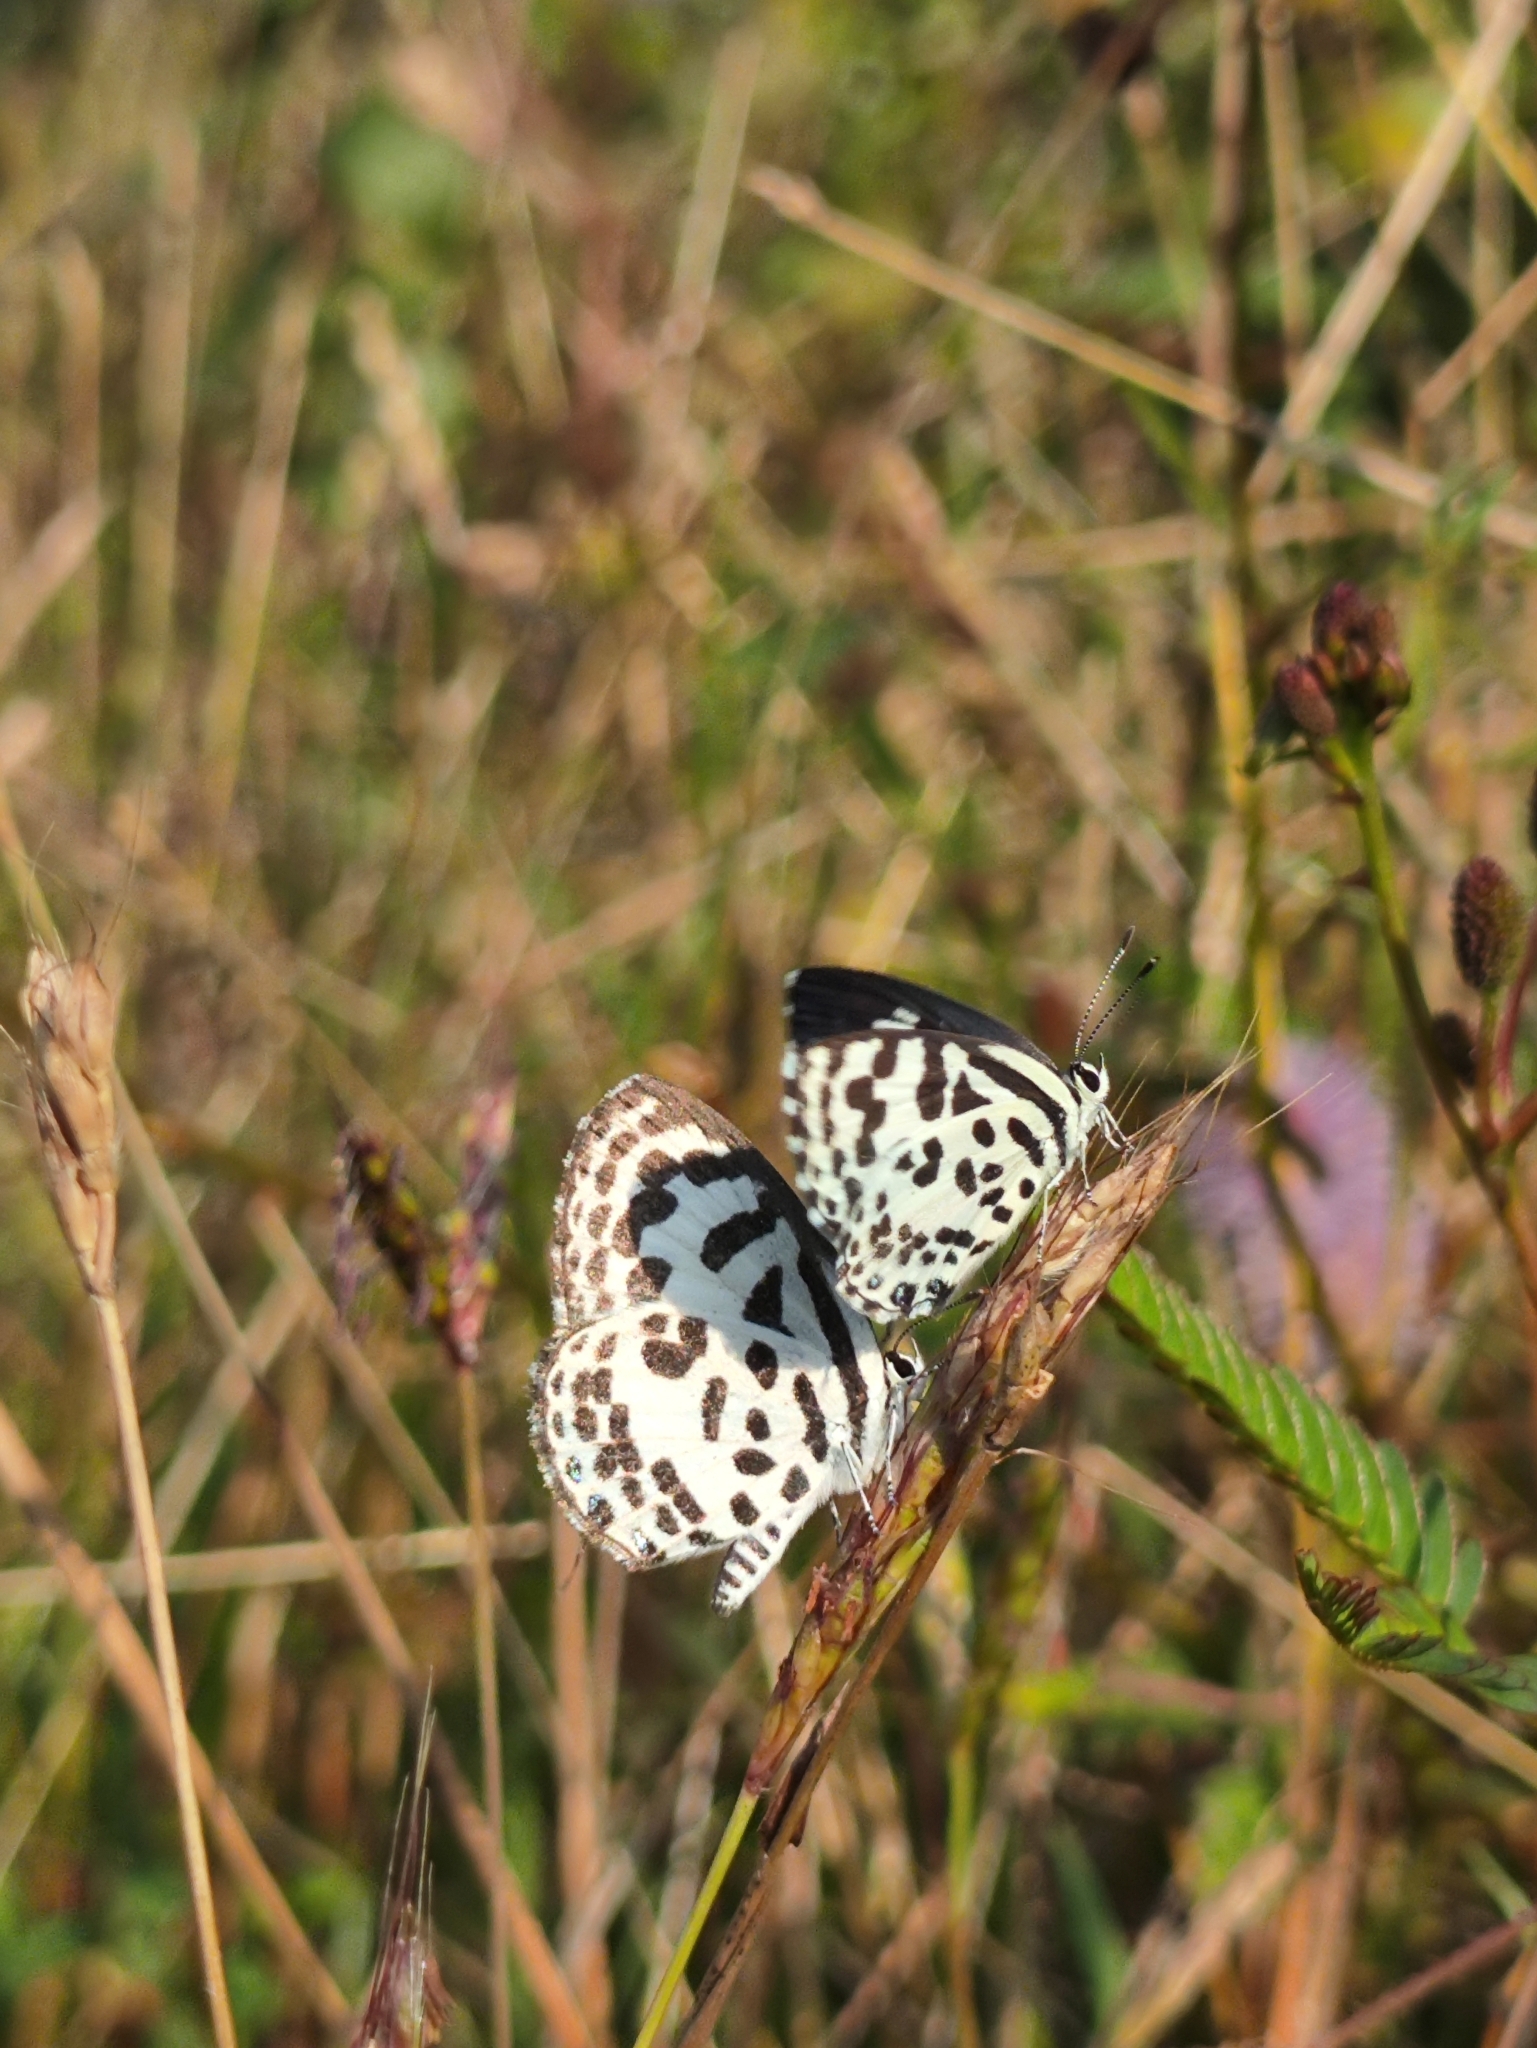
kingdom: Animalia
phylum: Arthropoda
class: Insecta
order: Lepidoptera
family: Lycaenidae
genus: Castalius
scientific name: Castalius rosimon
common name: Common pierrot
